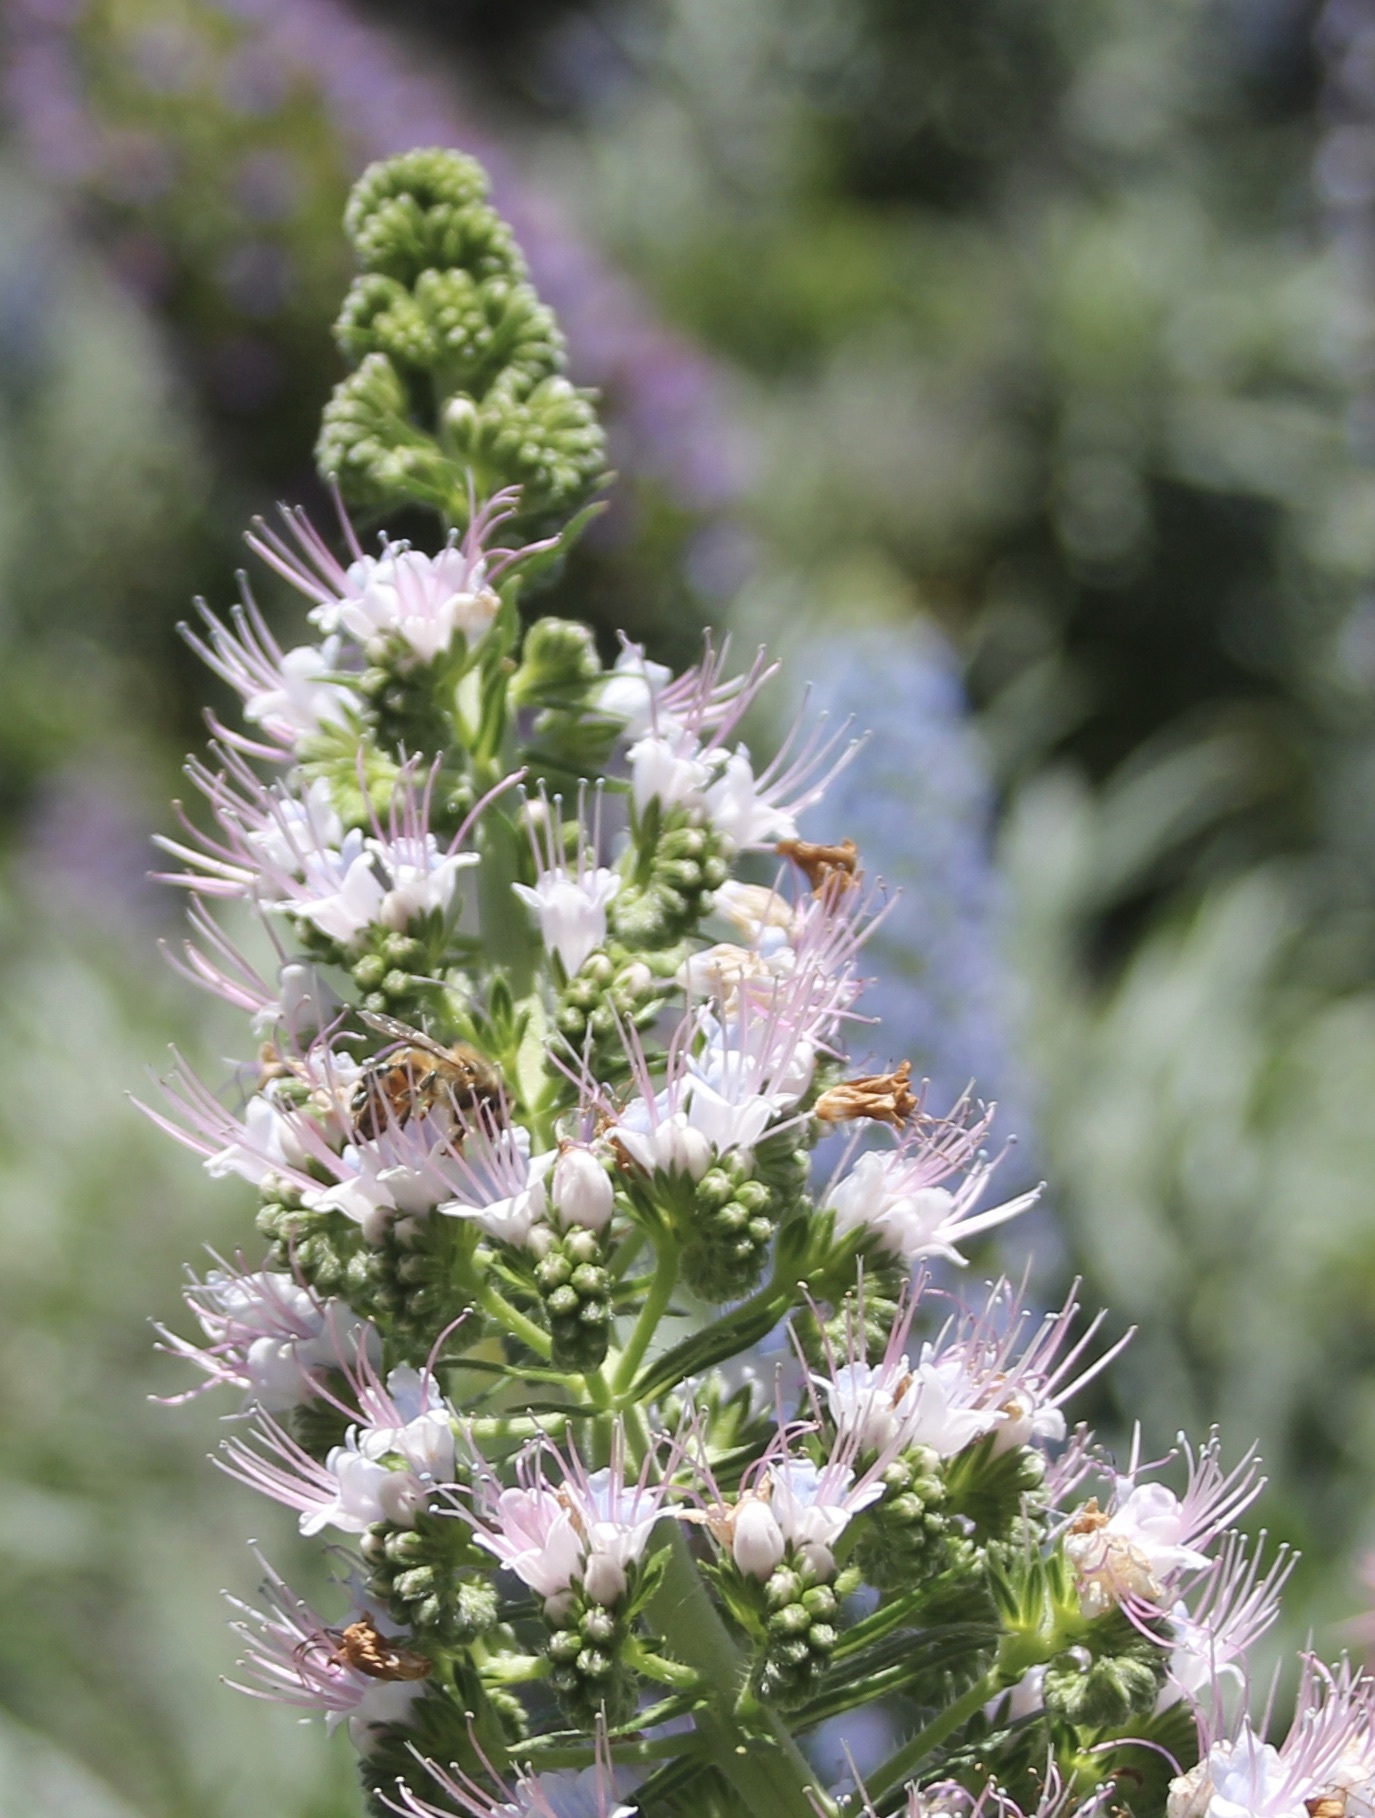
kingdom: Animalia
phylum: Arthropoda
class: Insecta
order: Hymenoptera
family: Apidae
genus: Apis
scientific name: Apis mellifera
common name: Honey bee
